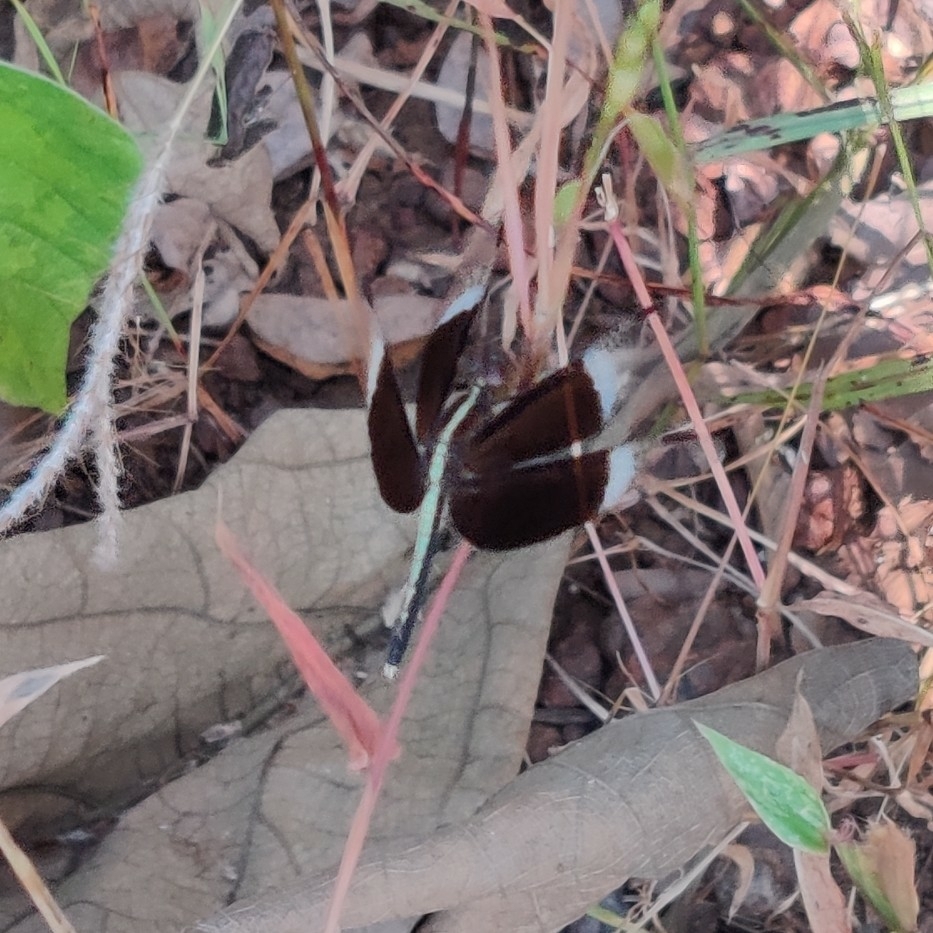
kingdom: Animalia
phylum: Arthropoda
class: Insecta
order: Odonata
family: Libellulidae
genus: Neurothemis
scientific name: Neurothemis tullia
